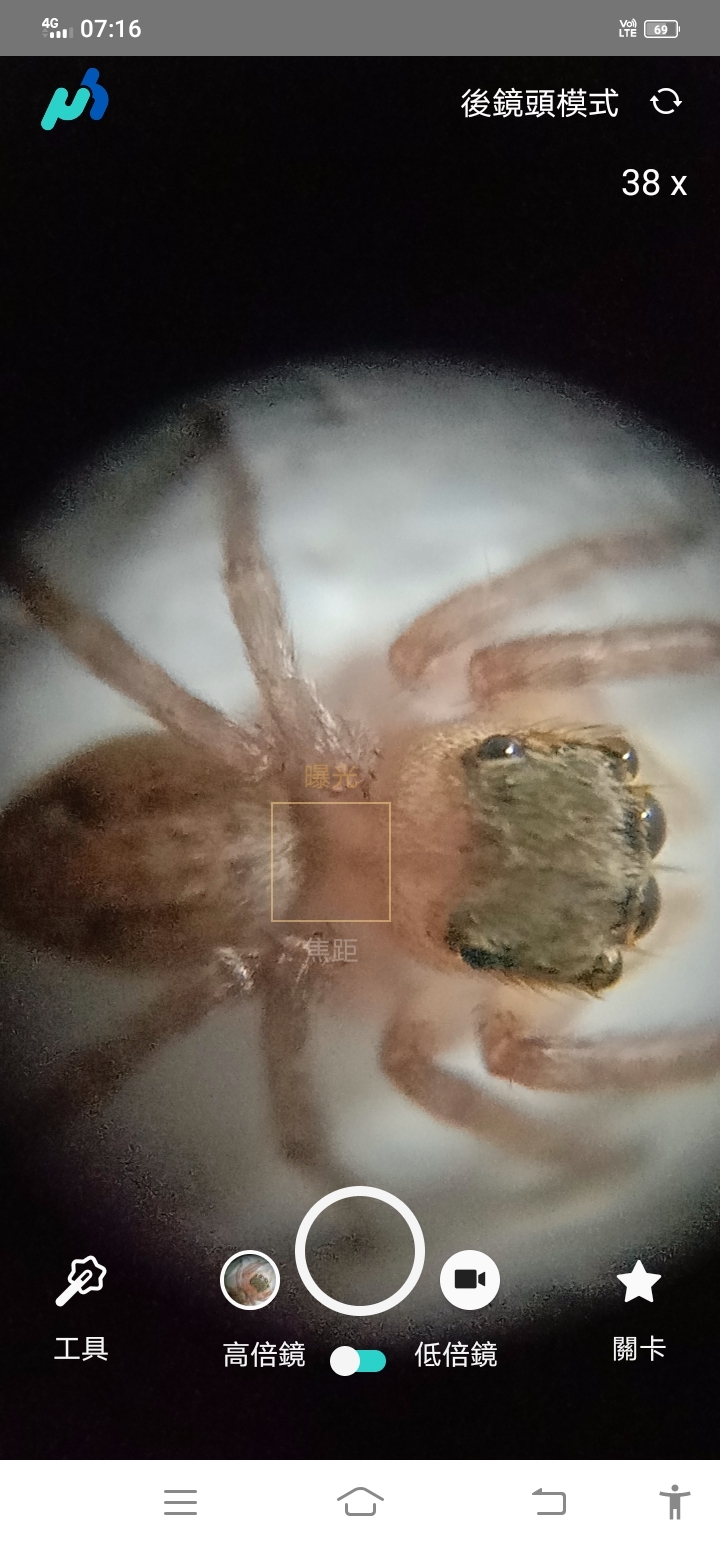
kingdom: Animalia
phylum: Arthropoda
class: Arachnida
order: Araneae
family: Salticidae
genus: Hasarius
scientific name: Hasarius adansoni
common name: Jumping spider
